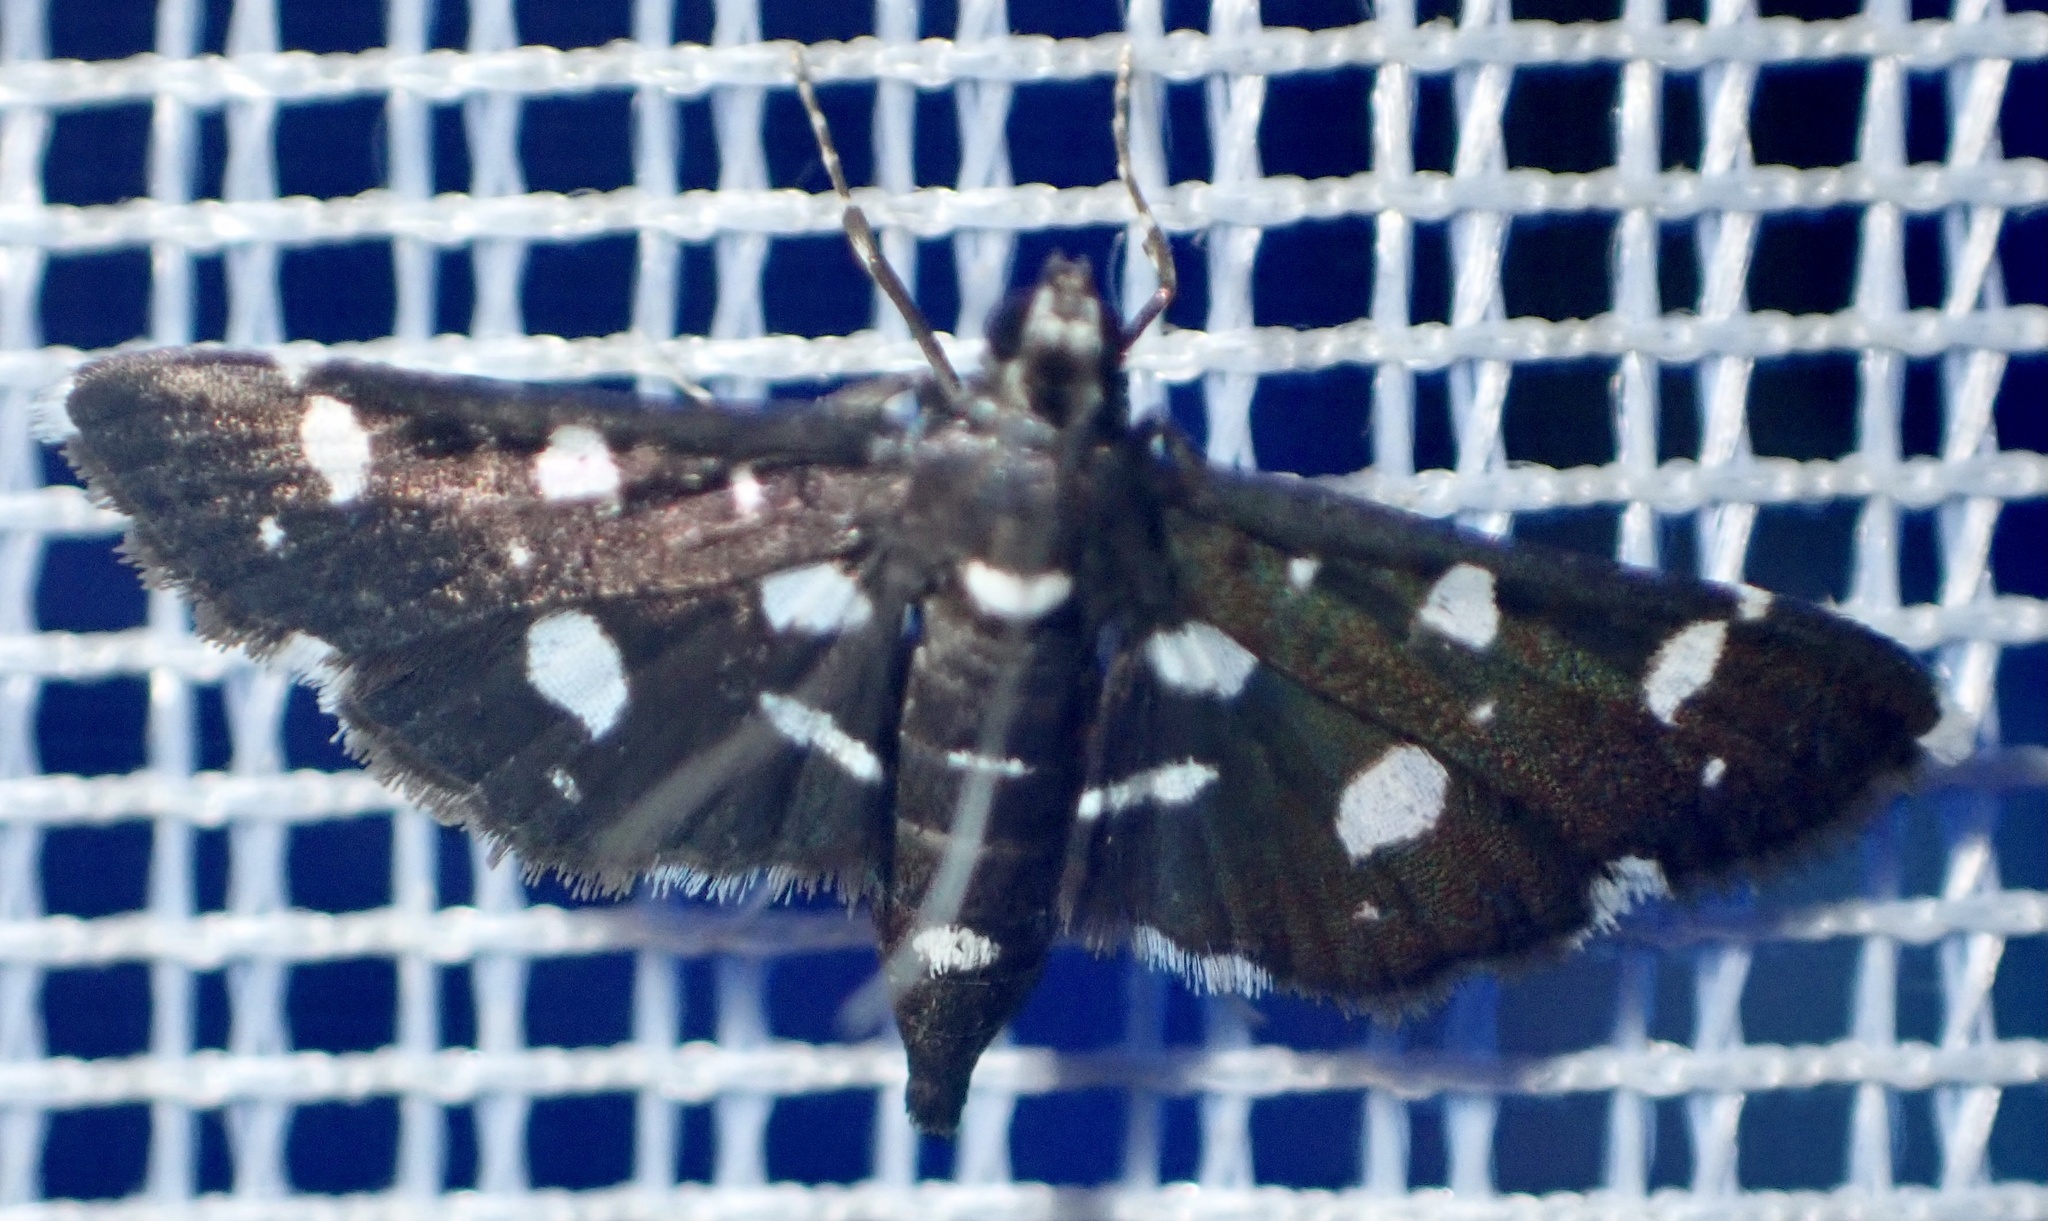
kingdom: Animalia
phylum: Arthropoda
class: Insecta
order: Lepidoptera
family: Crambidae
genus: Bocchoris
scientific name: Bocchoris inspersalis
